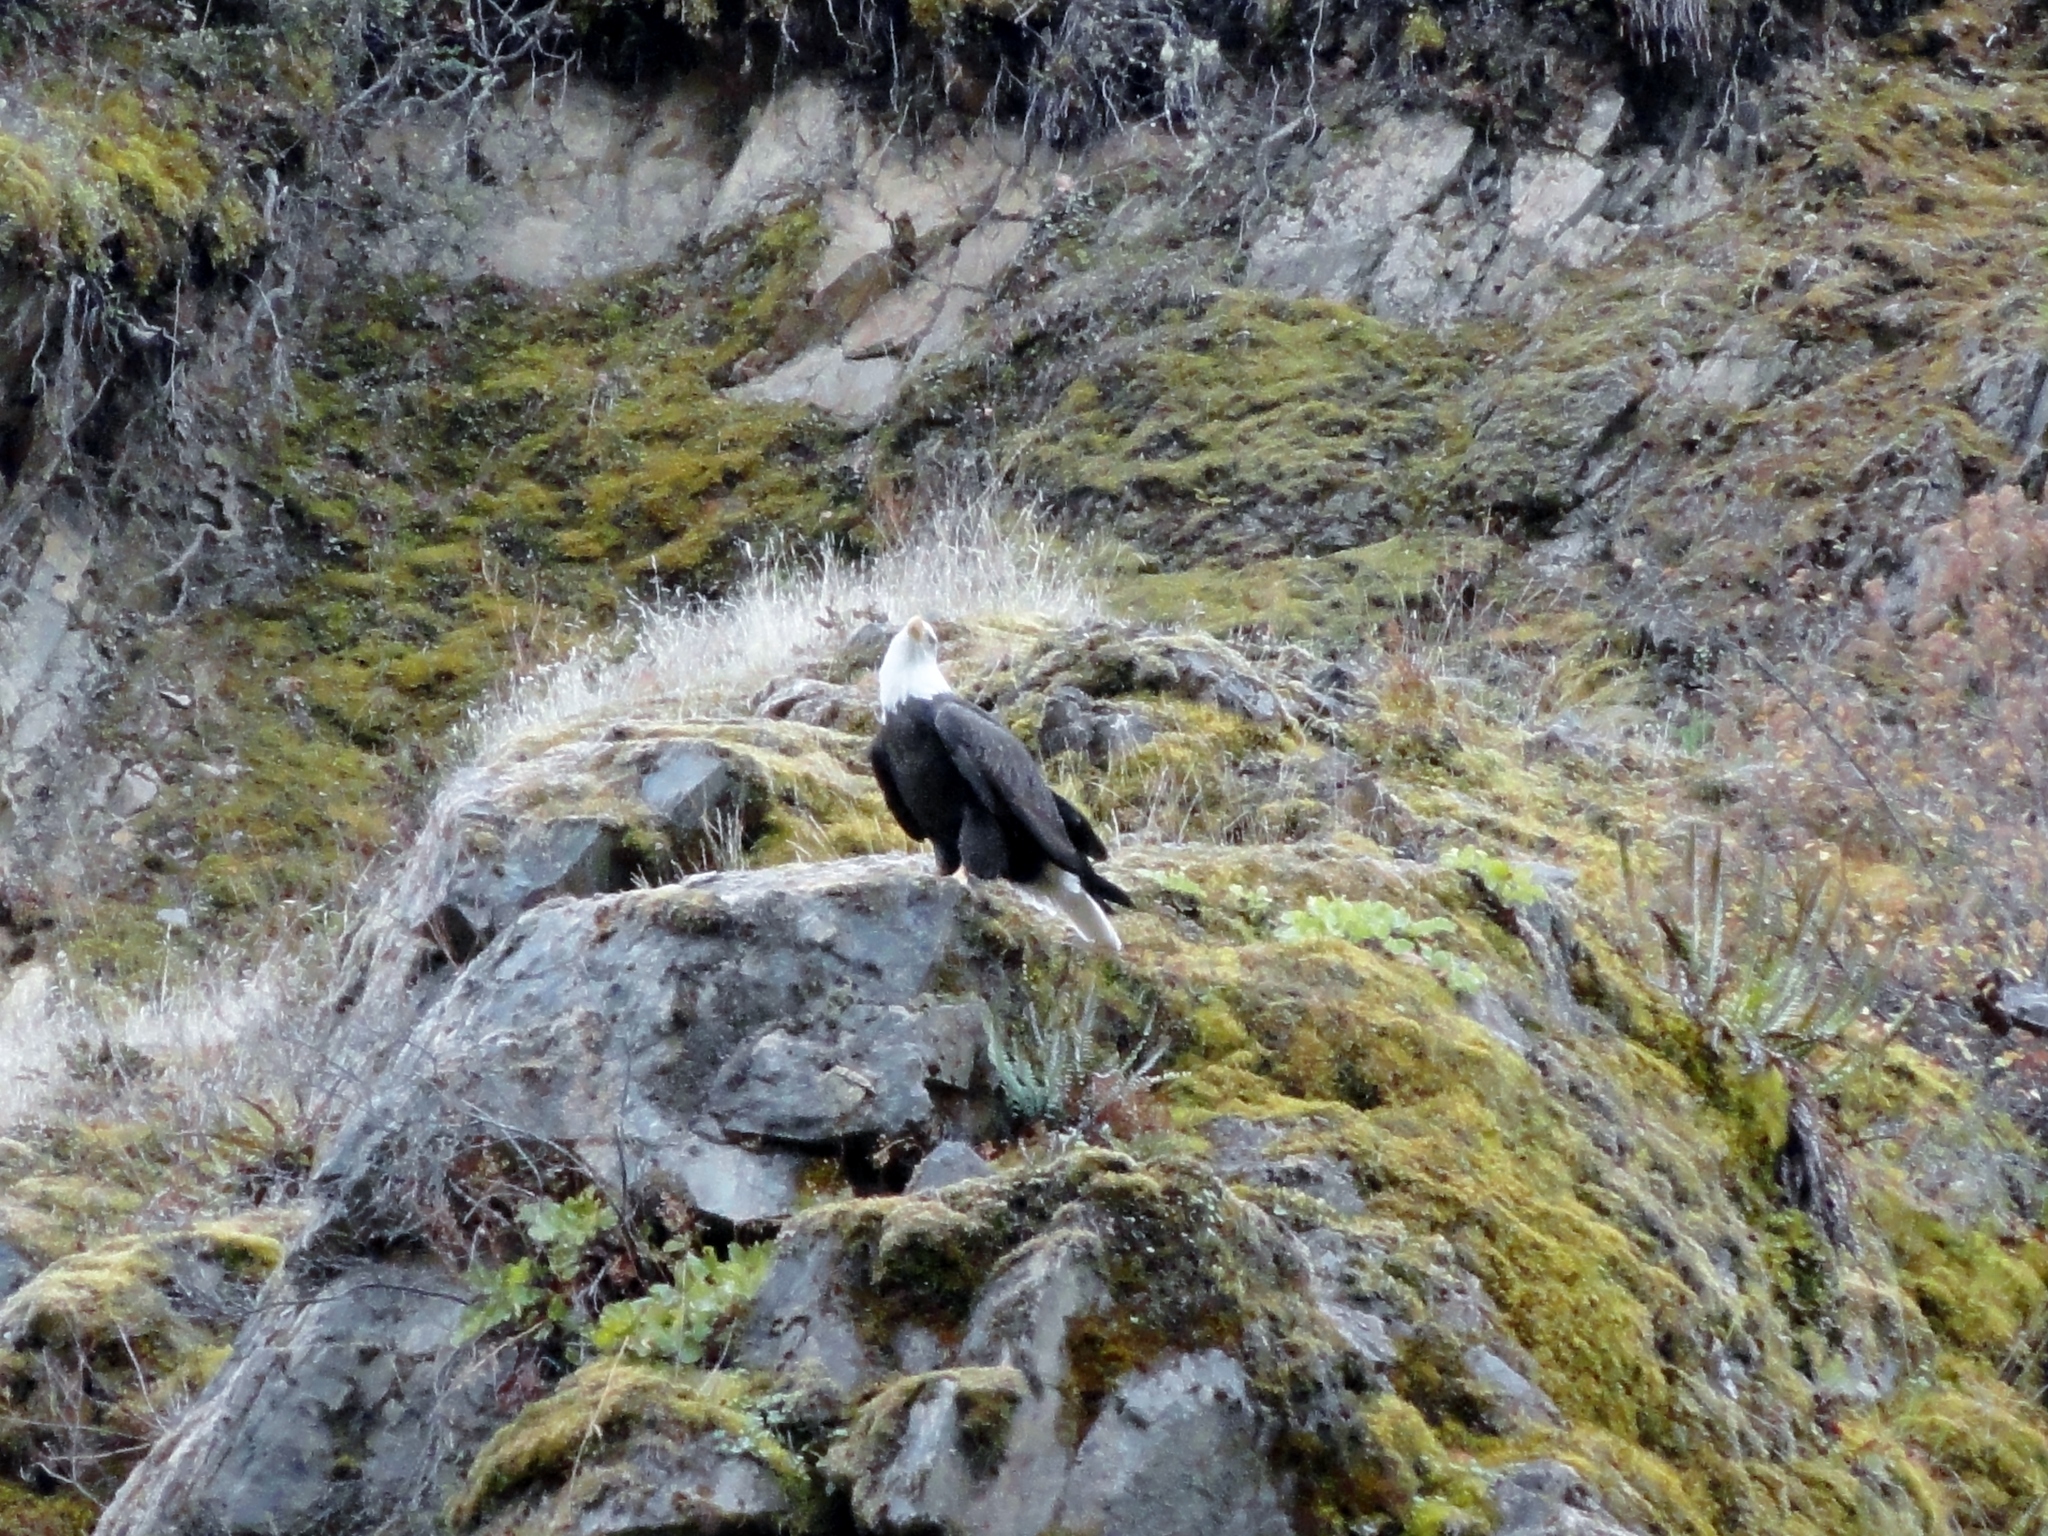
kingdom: Animalia
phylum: Chordata
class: Aves
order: Accipitriformes
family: Accipitridae
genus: Haliaeetus
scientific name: Haliaeetus leucocephalus
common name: Bald eagle
